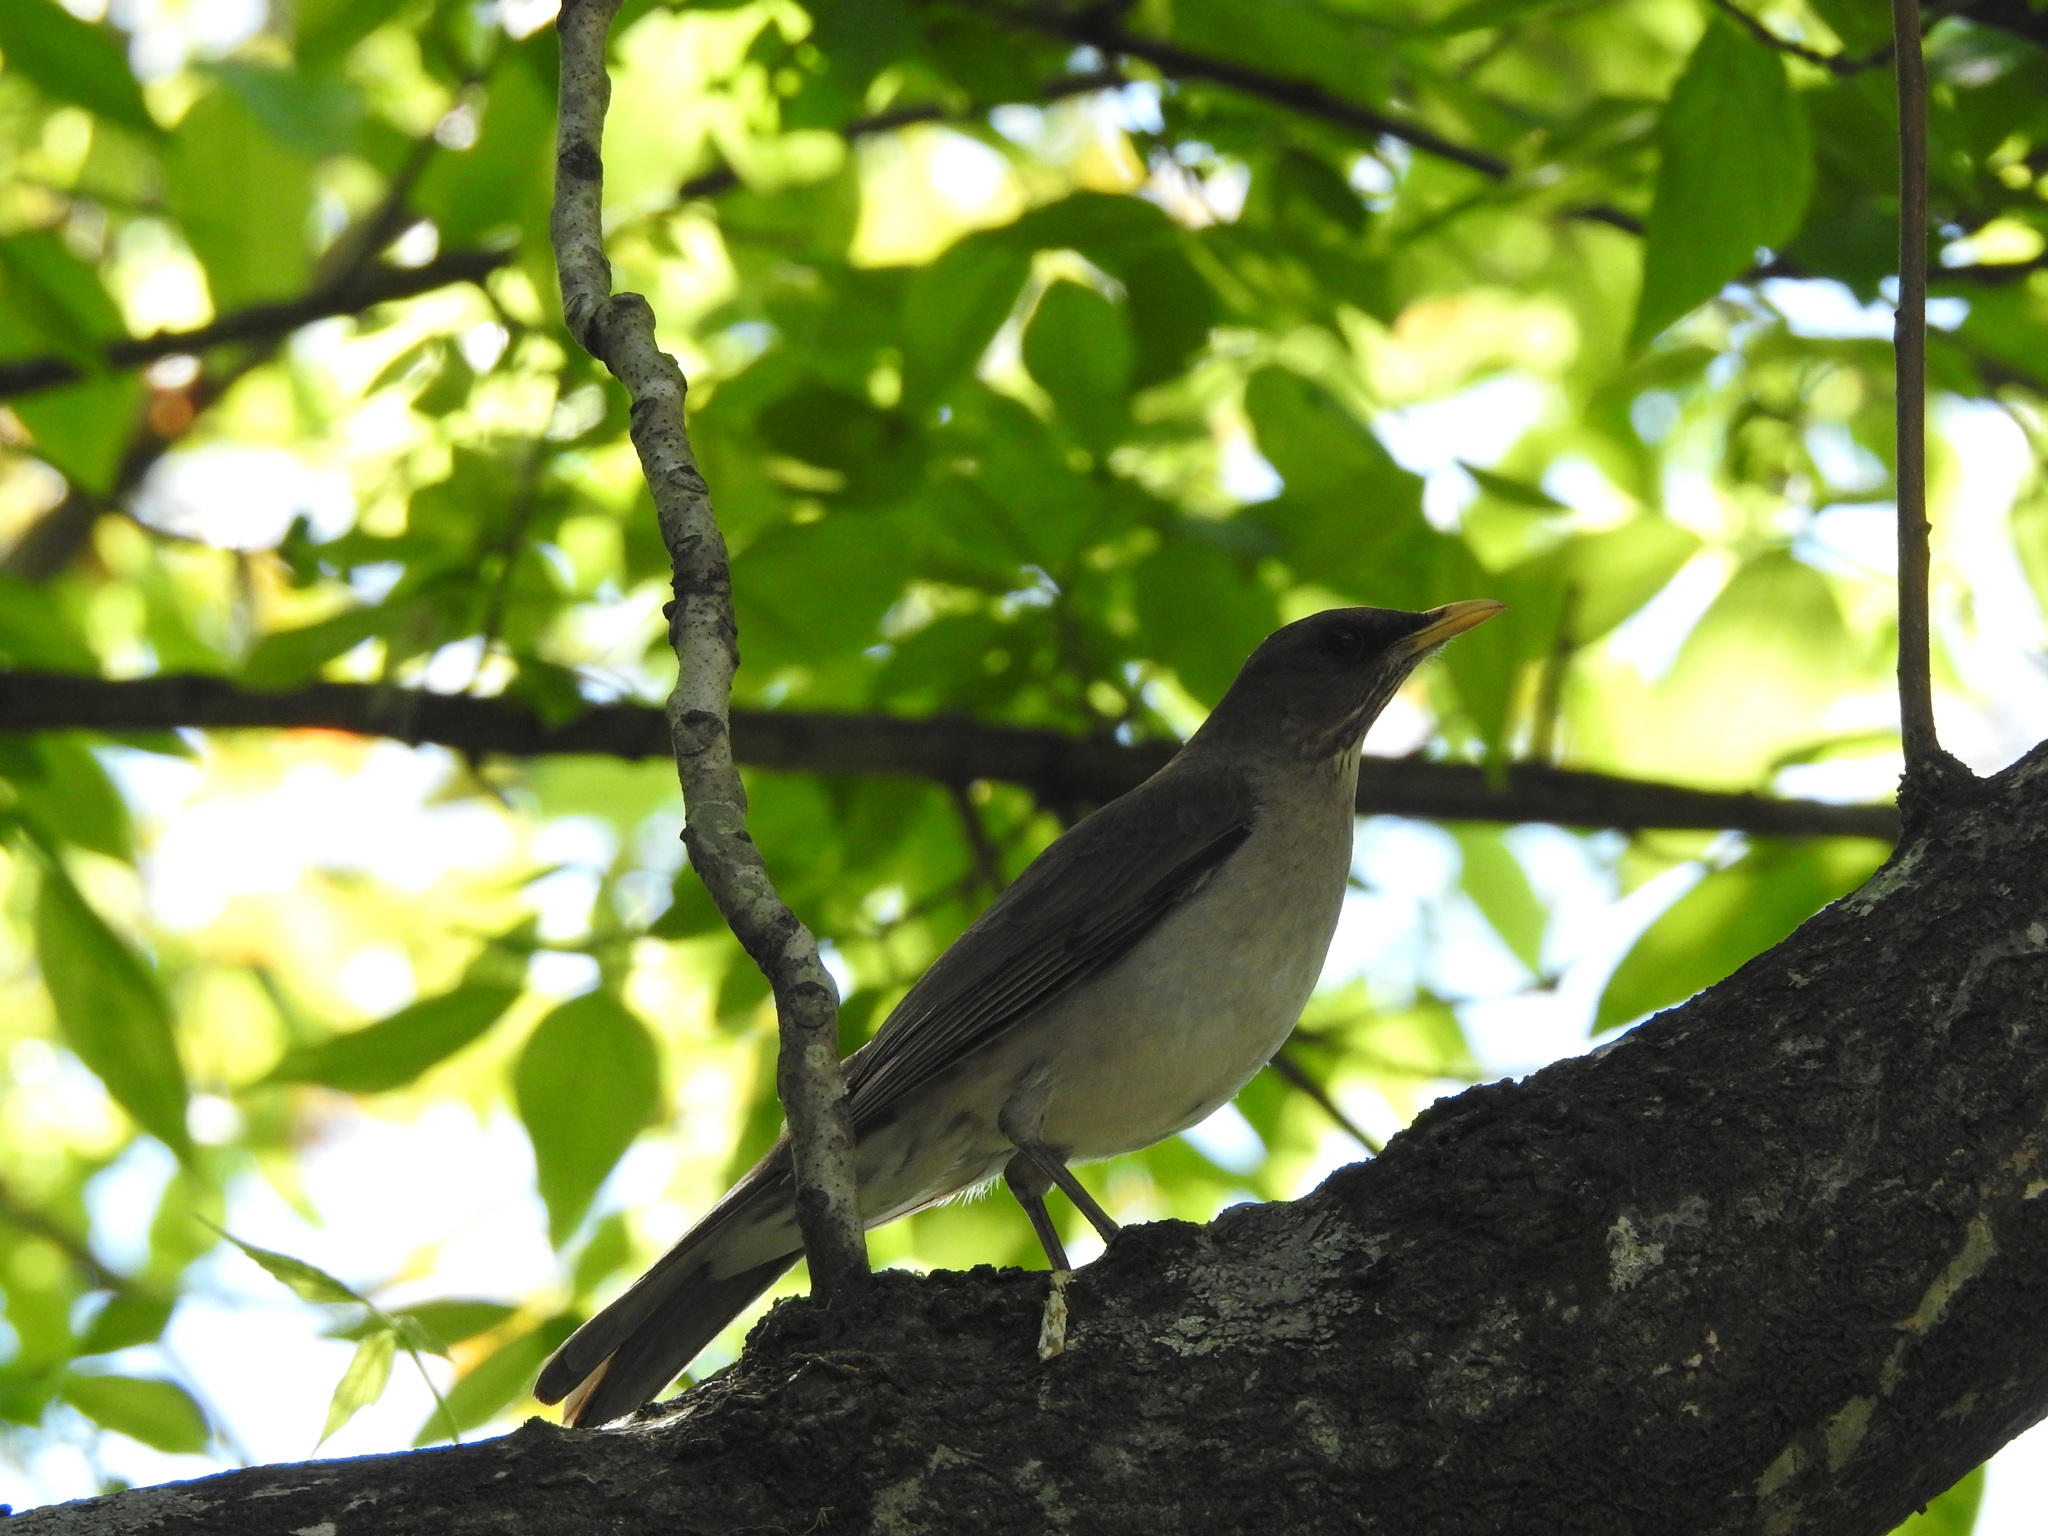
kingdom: Animalia
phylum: Chordata
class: Aves
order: Passeriformes
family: Turdidae
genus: Turdus
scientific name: Turdus amaurochalinus
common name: Creamy-bellied thrush
